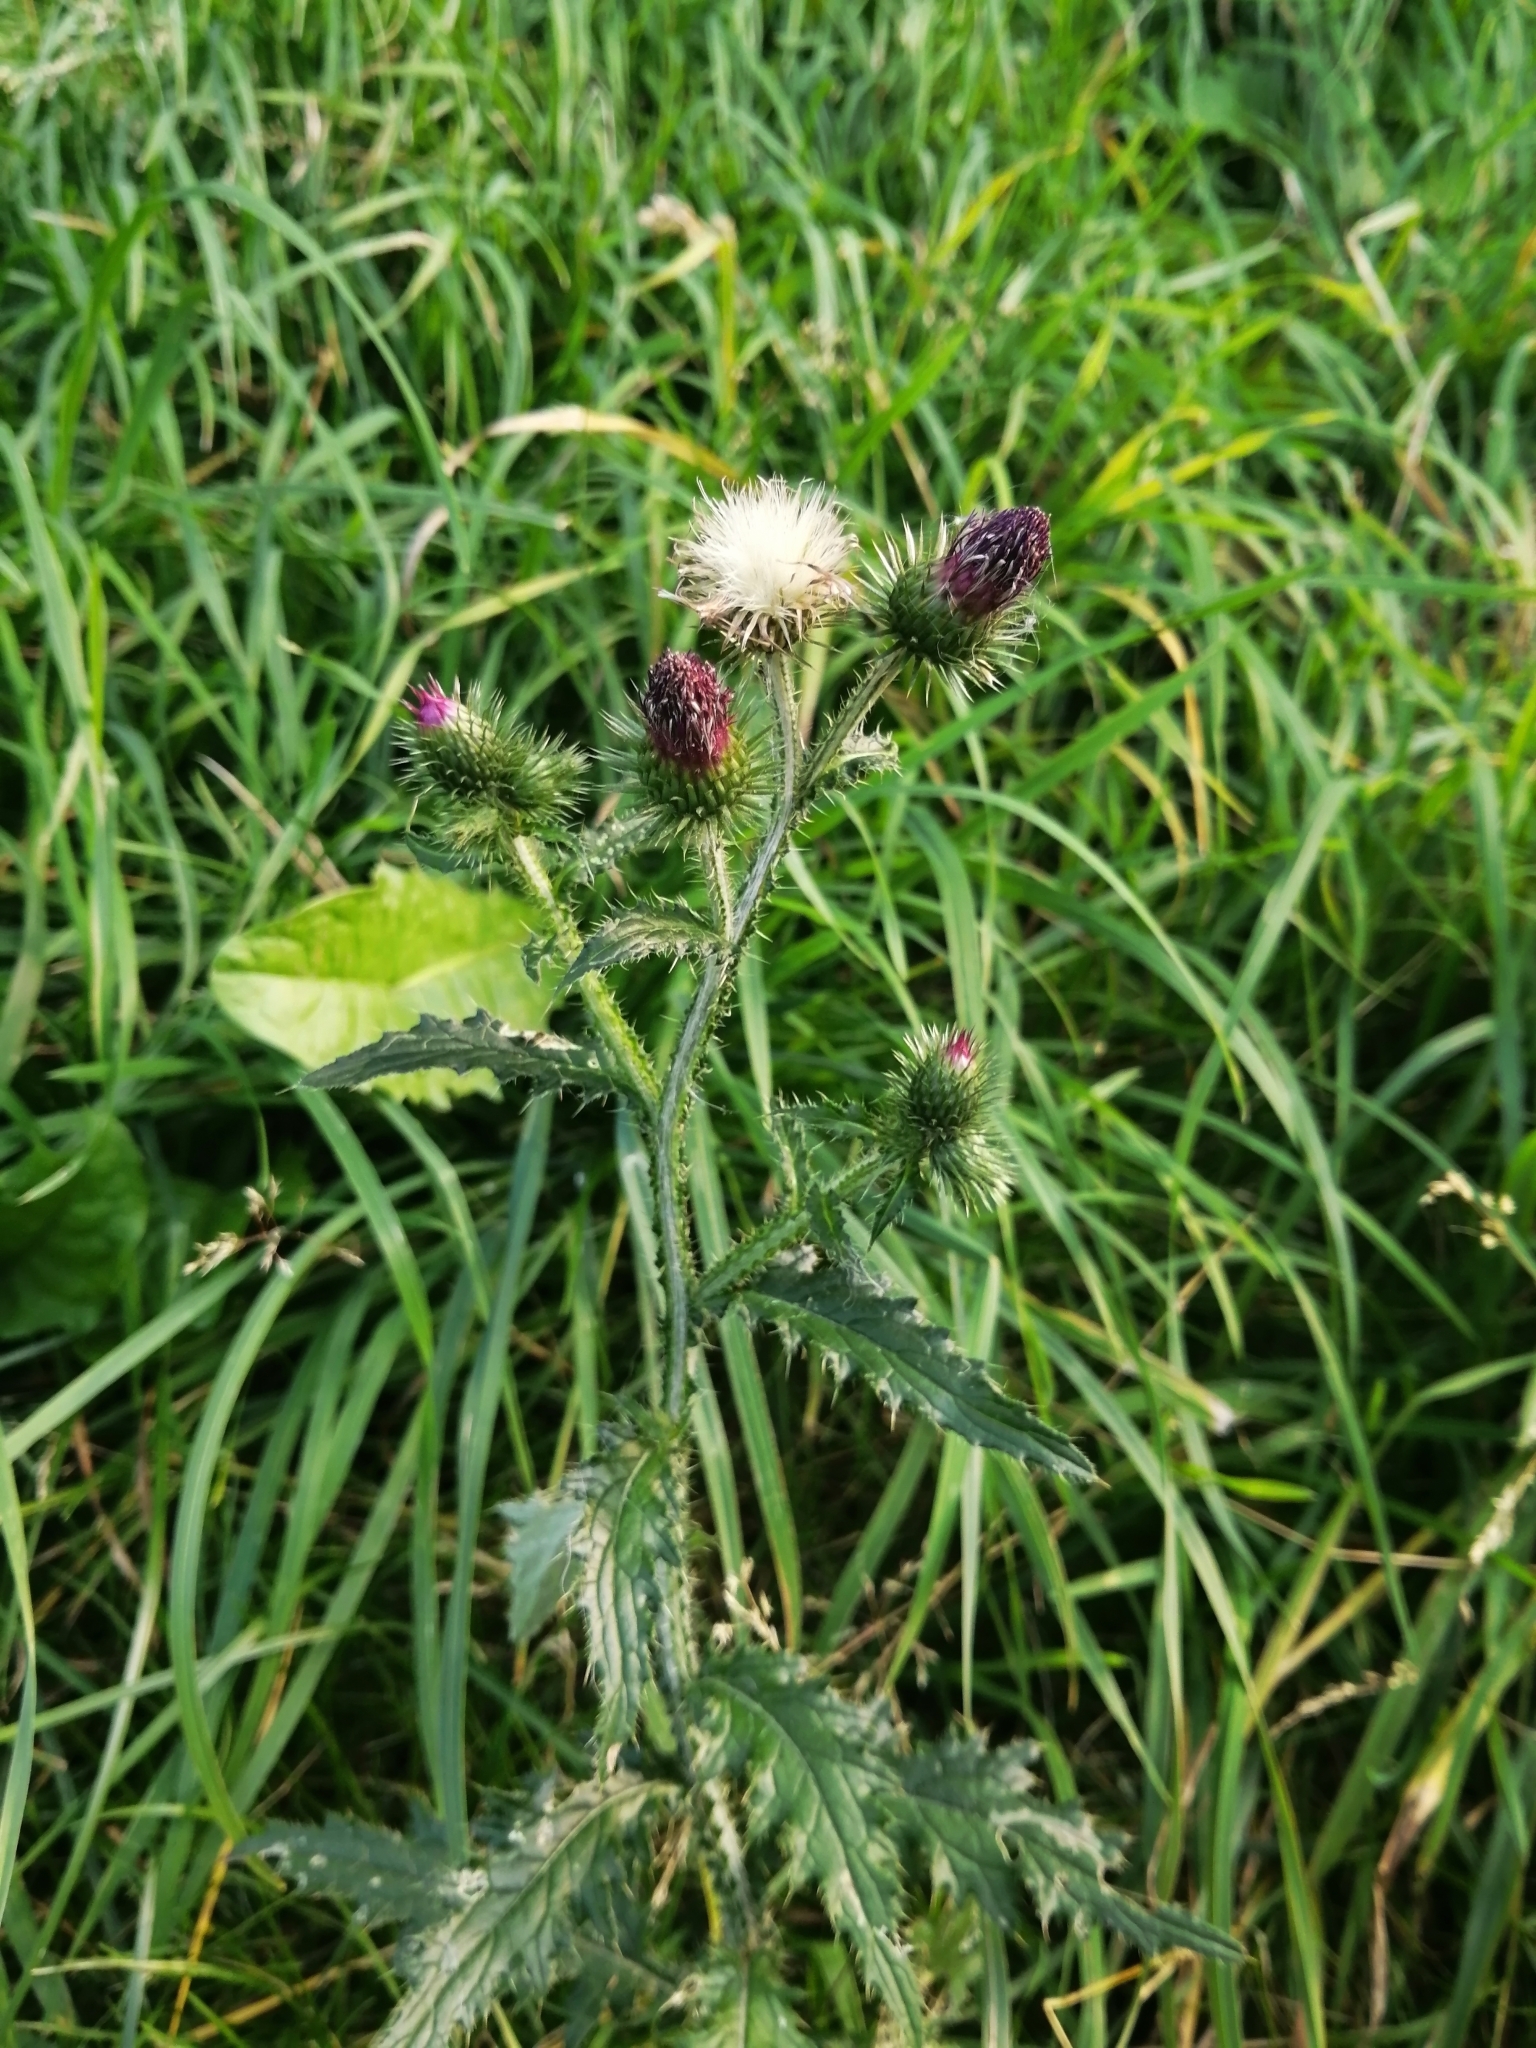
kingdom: Plantae
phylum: Tracheophyta
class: Magnoliopsida
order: Asterales
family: Asteraceae
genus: Carduus
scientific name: Carduus crispus
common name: Welted thistle
